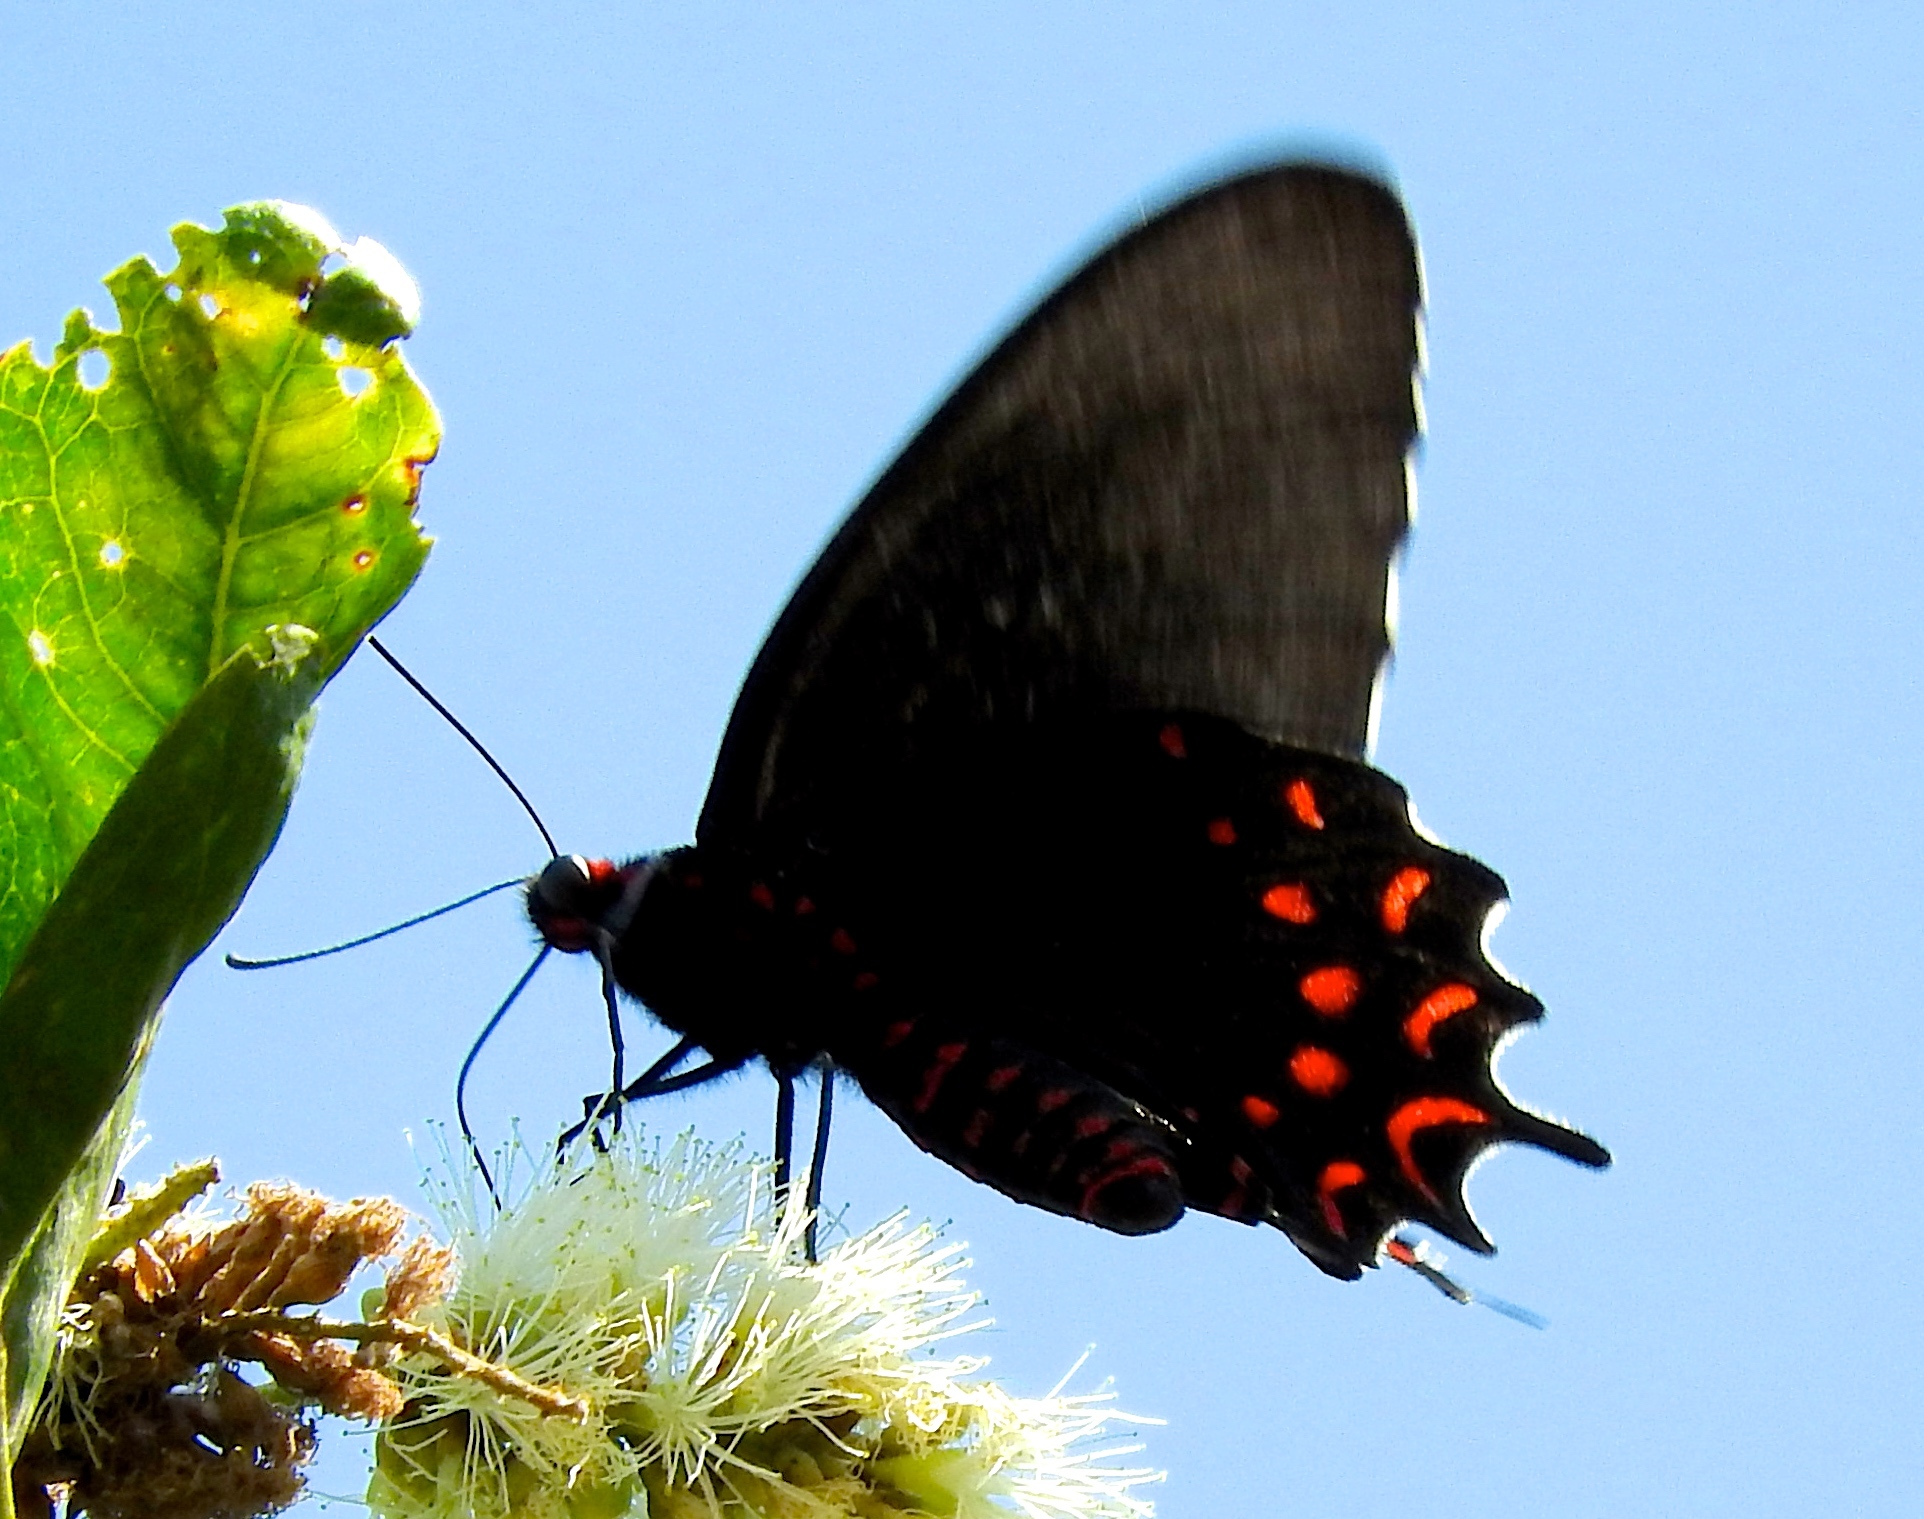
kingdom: Animalia
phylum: Arthropoda
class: Insecta
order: Lepidoptera
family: Papilionidae
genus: Parides
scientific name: Parides photinus
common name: Pink-spotted cattleheart
